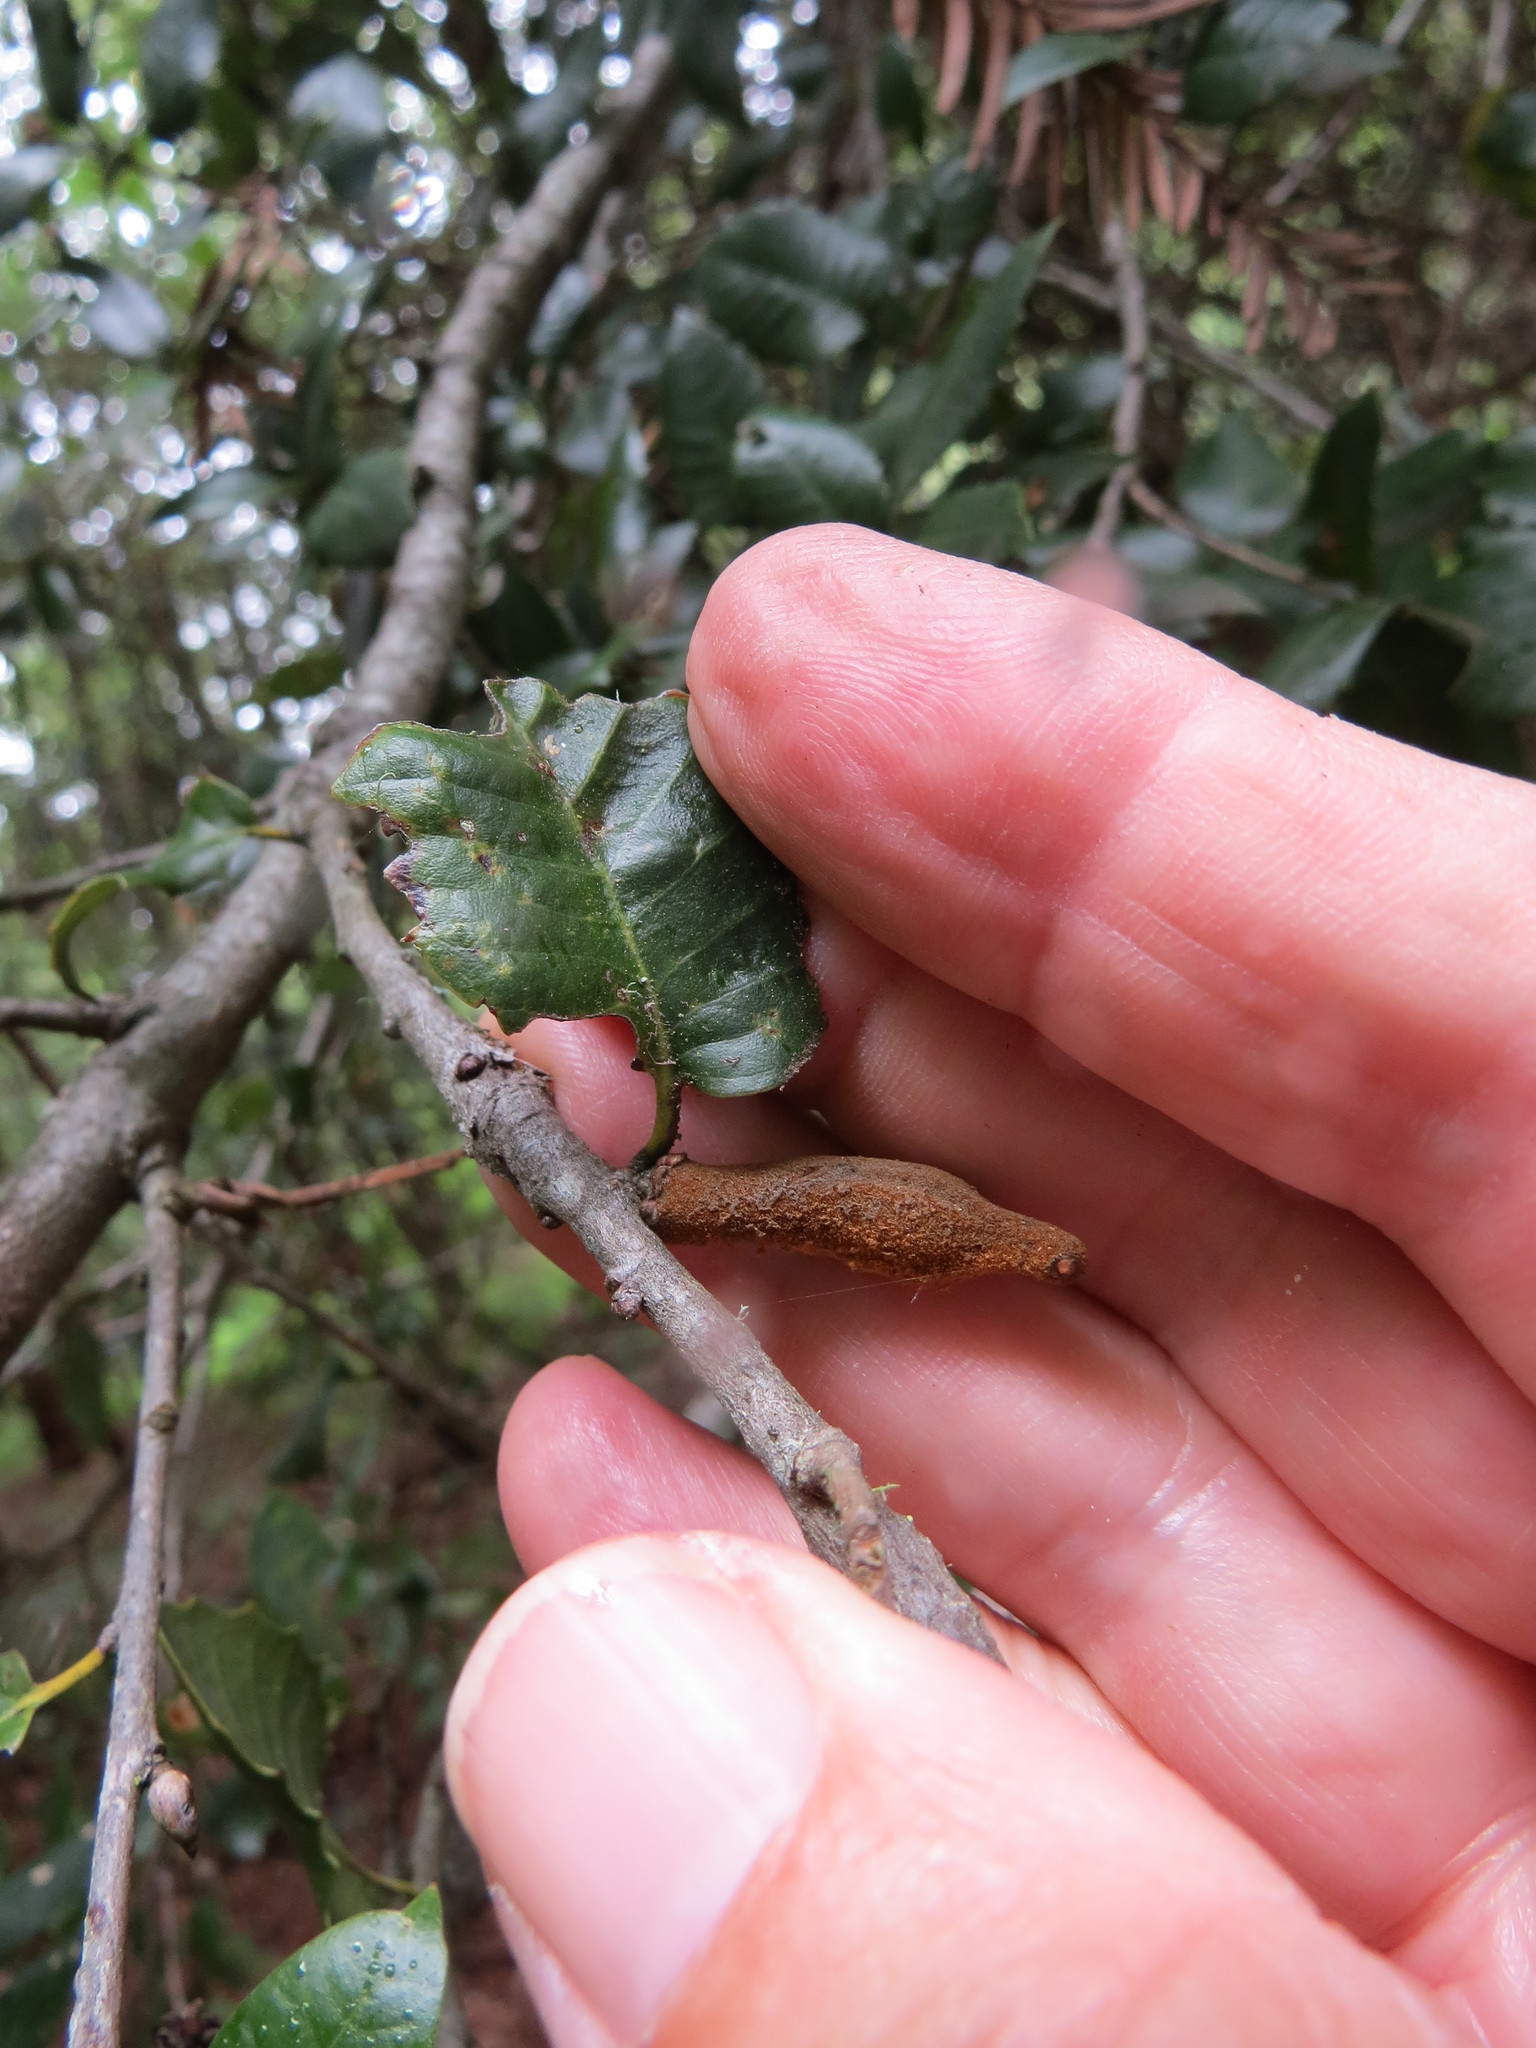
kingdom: Animalia
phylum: Arthropoda
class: Insecta
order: Hymenoptera
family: Cynipidae
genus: Heteroecus
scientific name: Heteroecus
